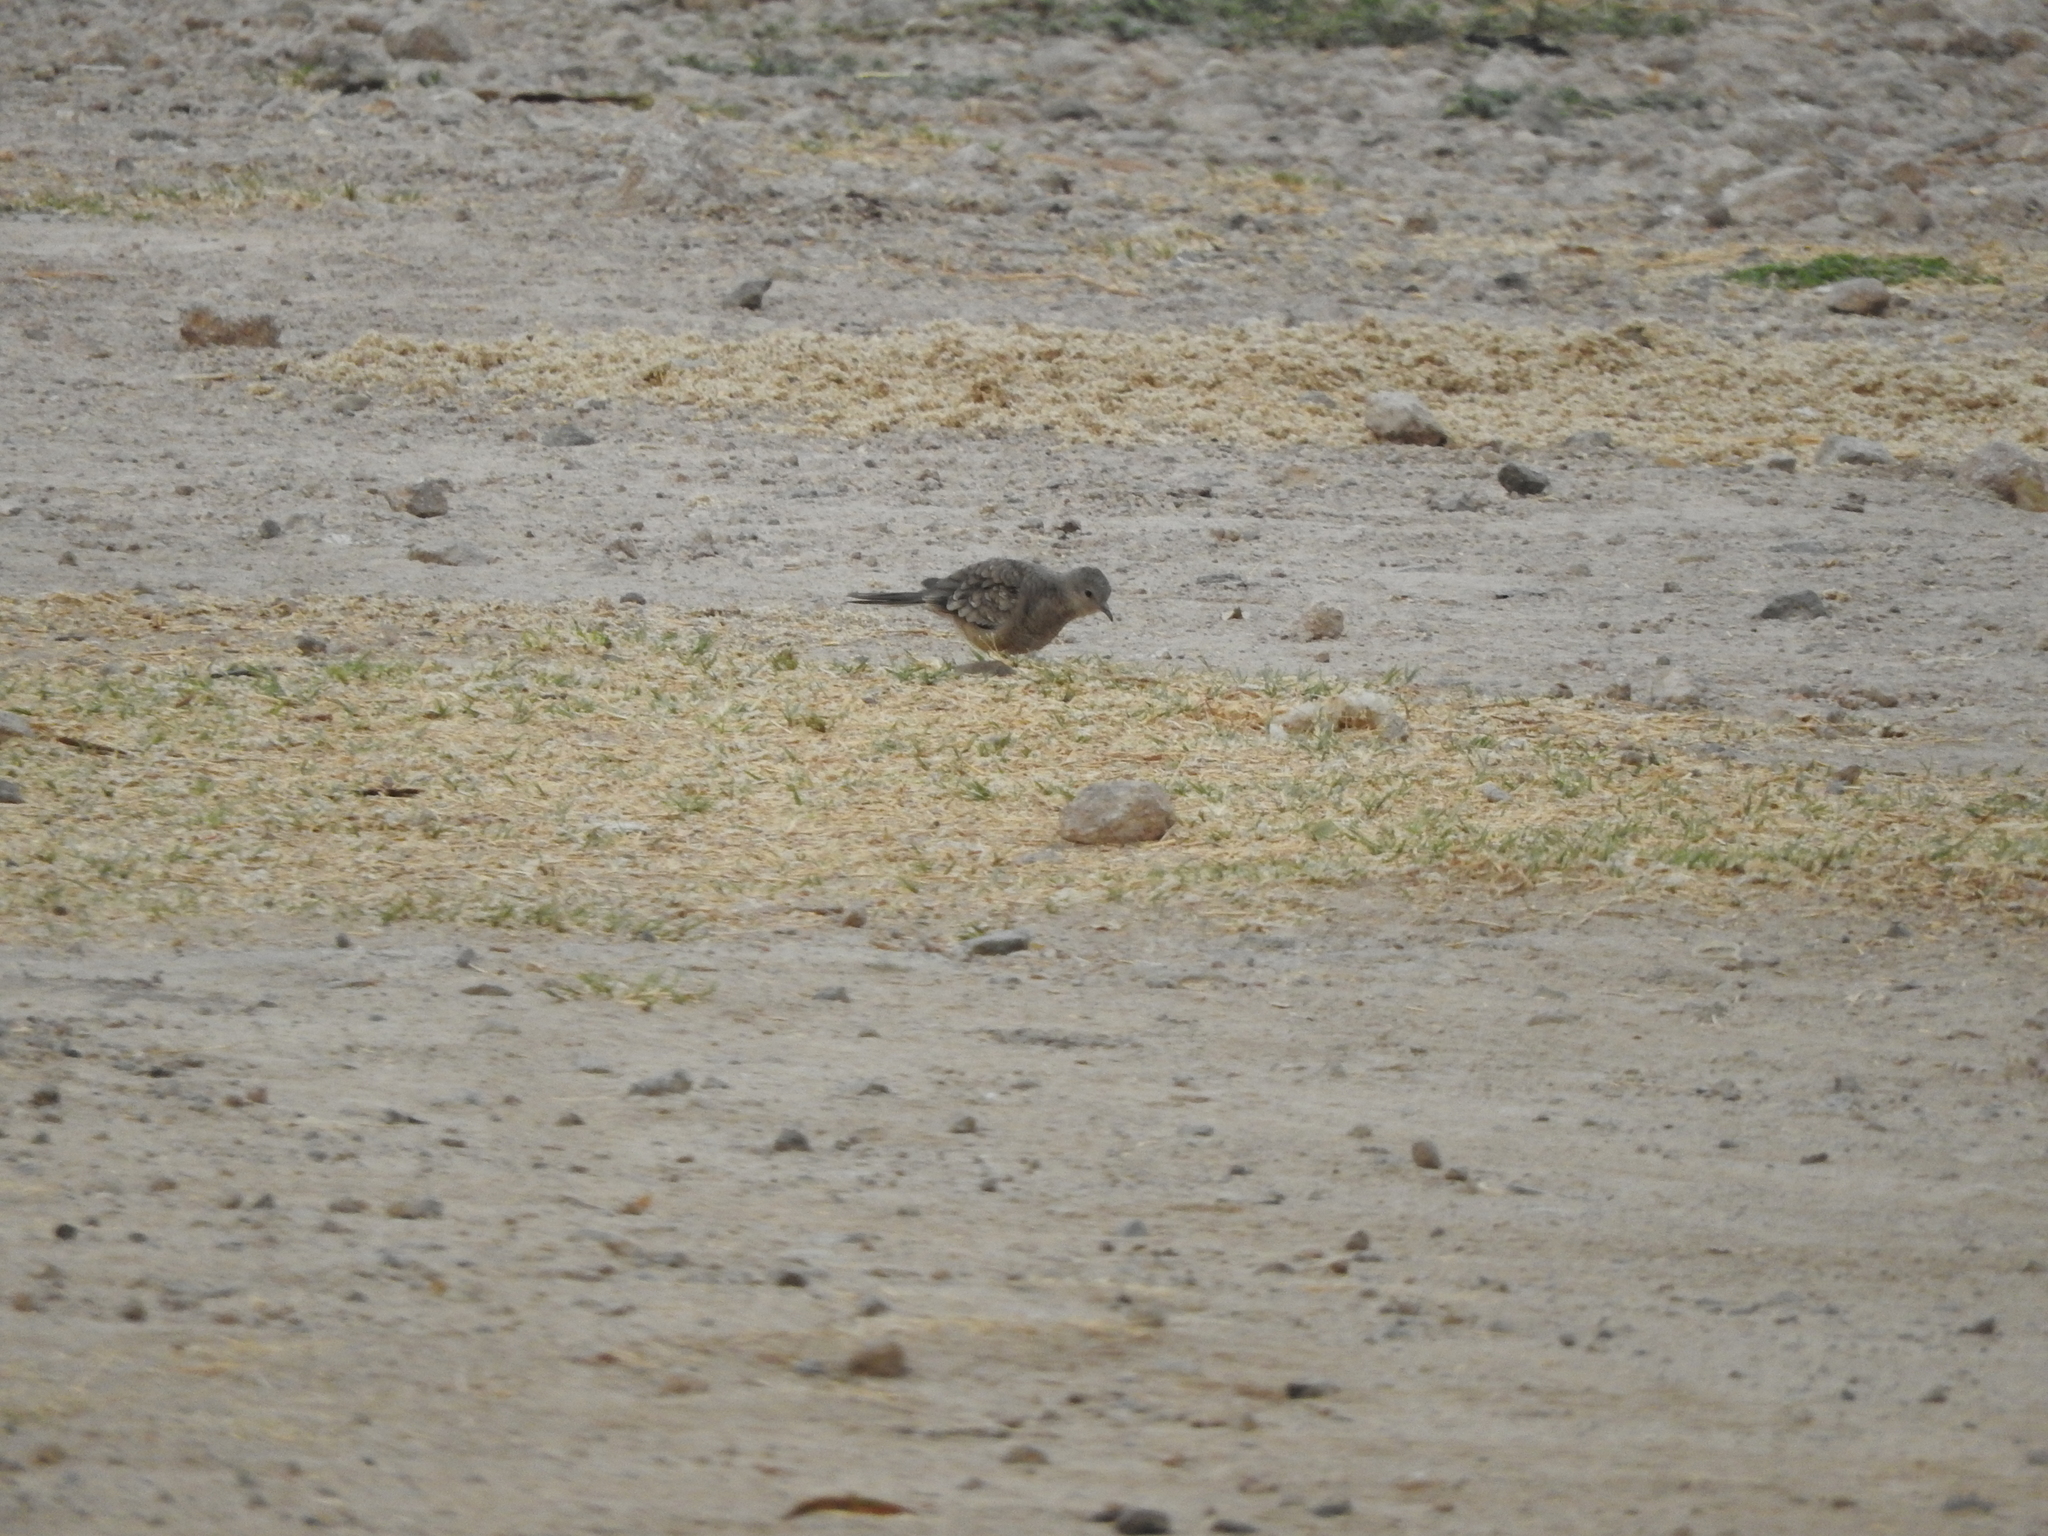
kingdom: Animalia
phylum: Chordata
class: Aves
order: Columbiformes
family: Columbidae
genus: Columbina
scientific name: Columbina inca
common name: Inca dove
